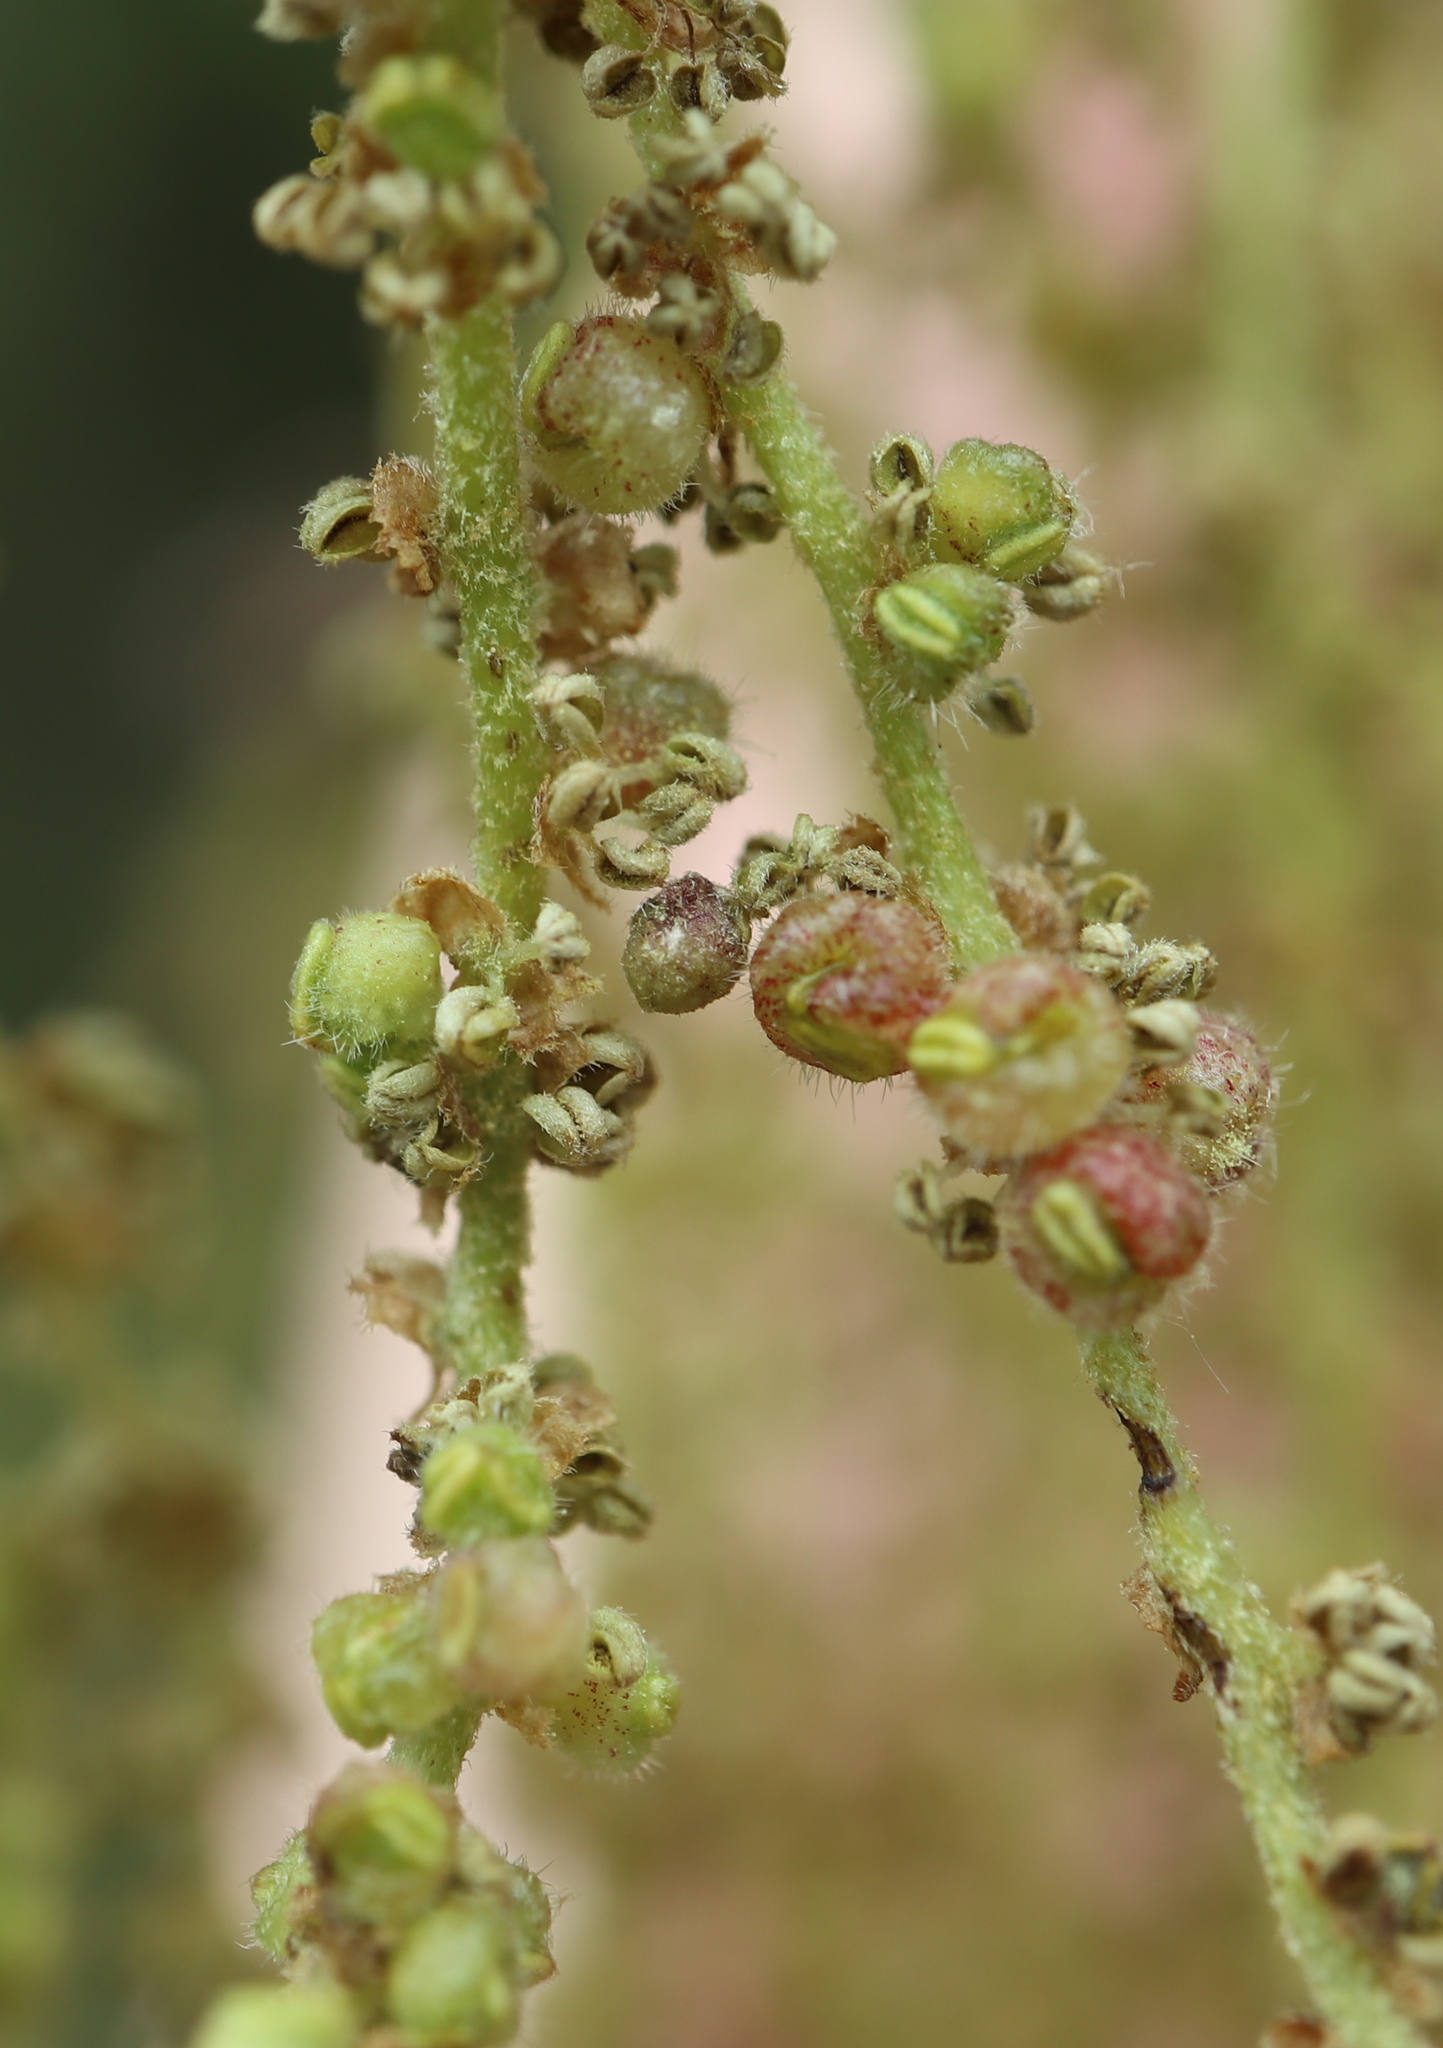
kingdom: Animalia
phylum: Arthropoda
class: Insecta
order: Hymenoptera
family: Cynipidae
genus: Callirhytis
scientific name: Callirhytis
